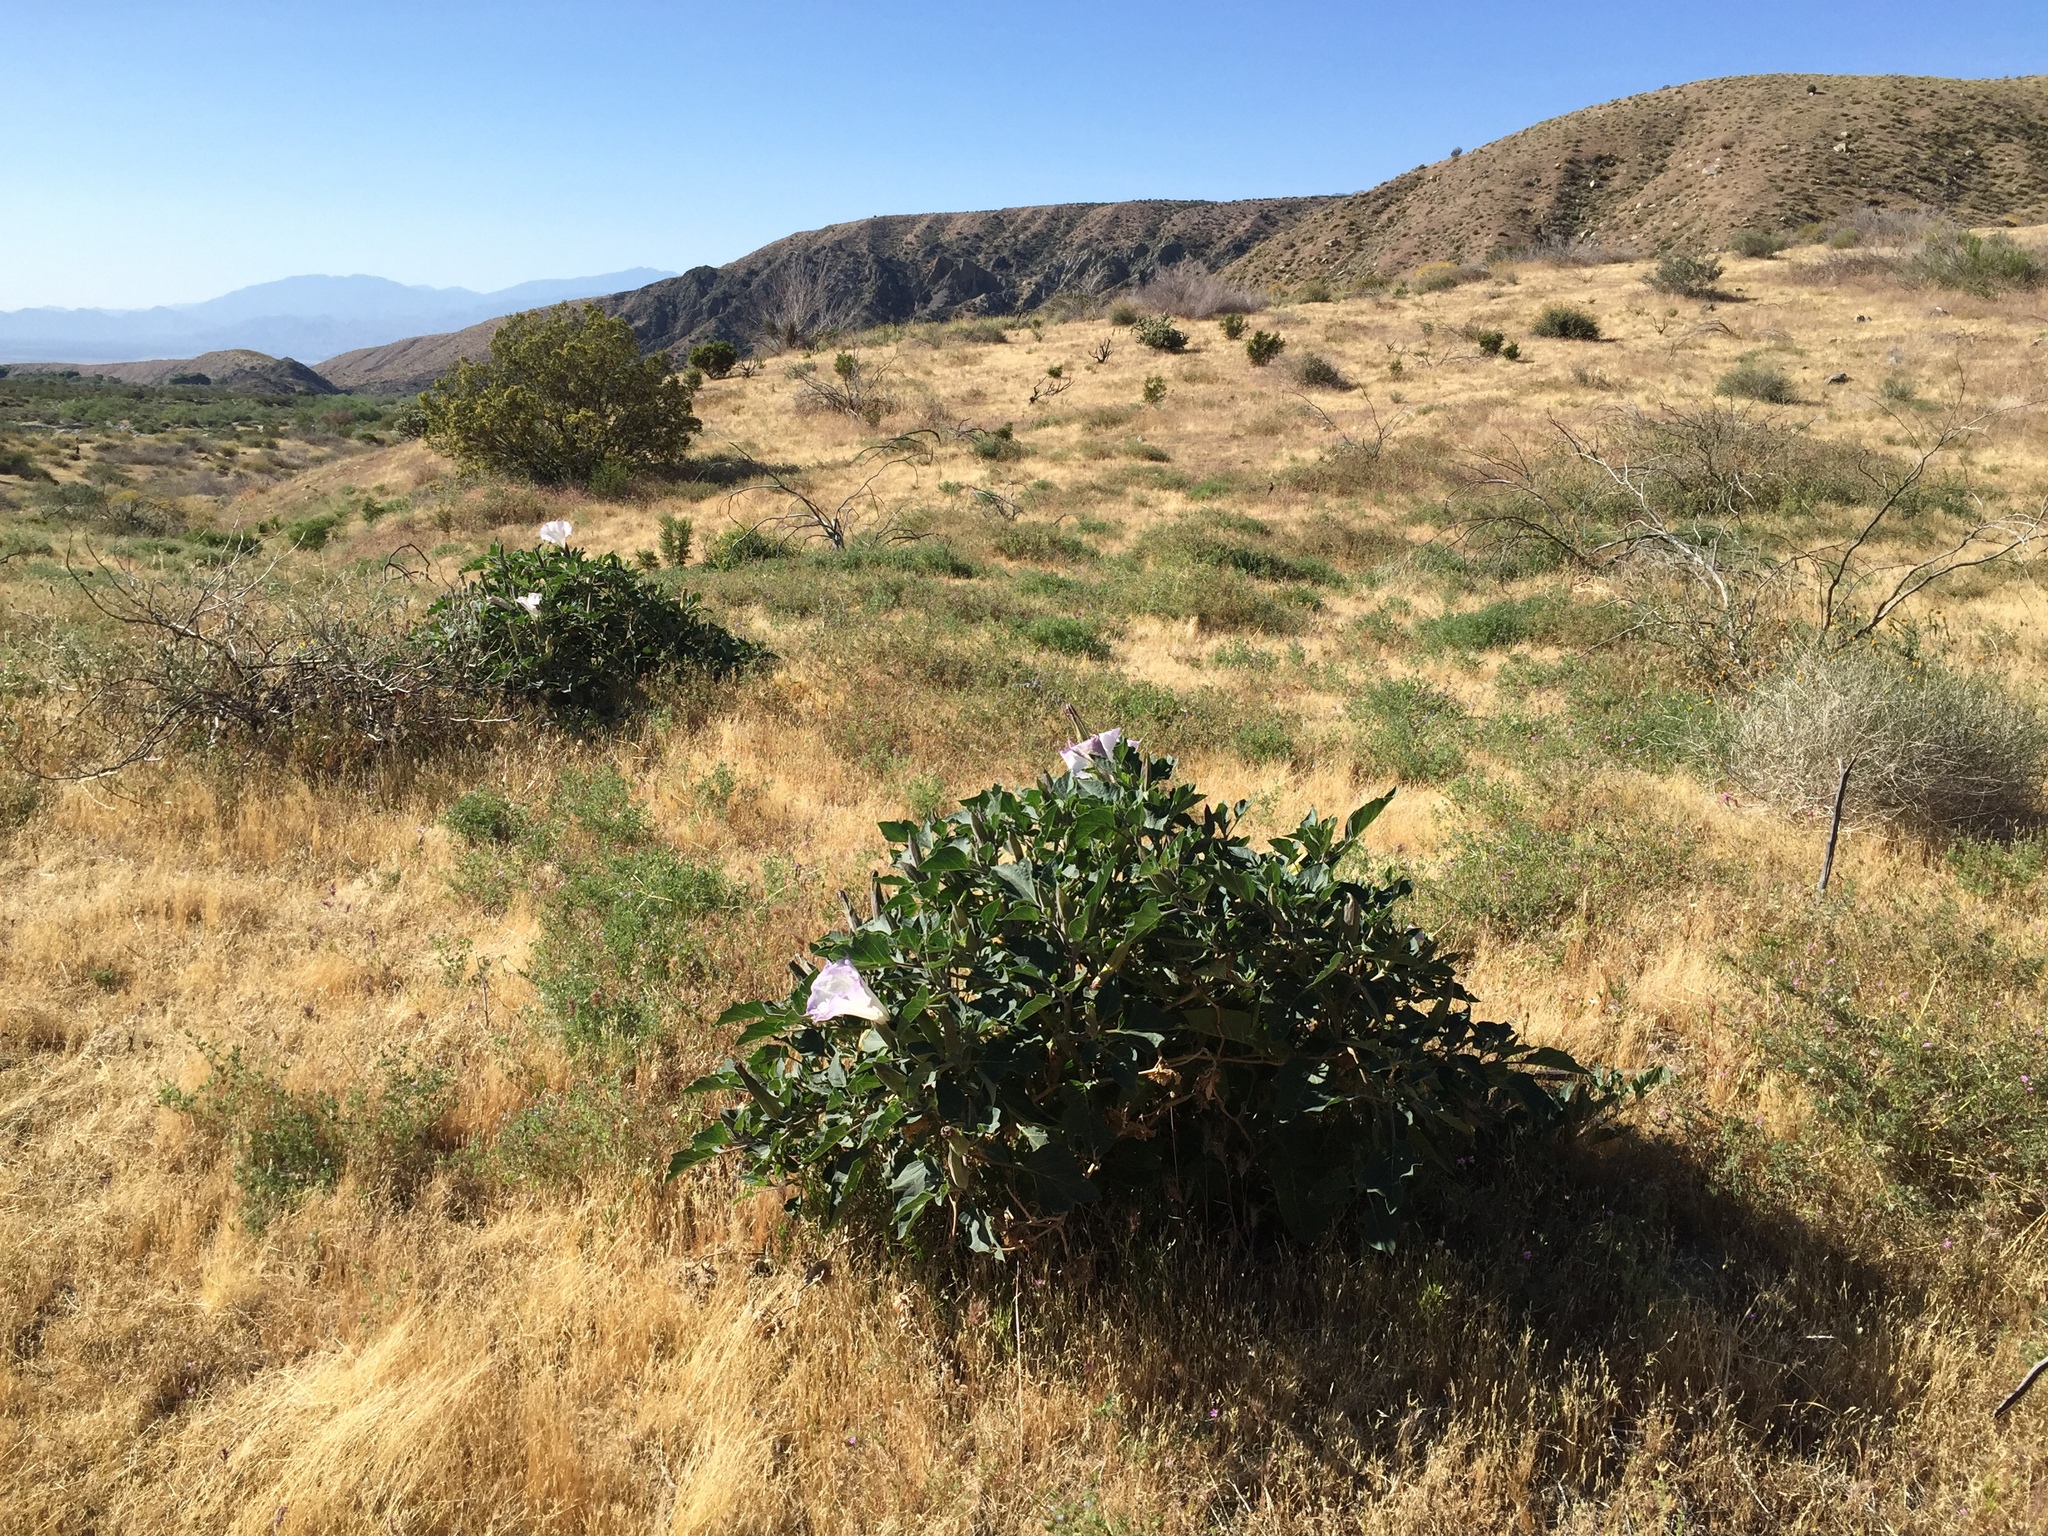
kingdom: Plantae
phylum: Tracheophyta
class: Magnoliopsida
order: Solanales
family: Solanaceae
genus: Datura
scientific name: Datura wrightii
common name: Sacred thorn-apple
